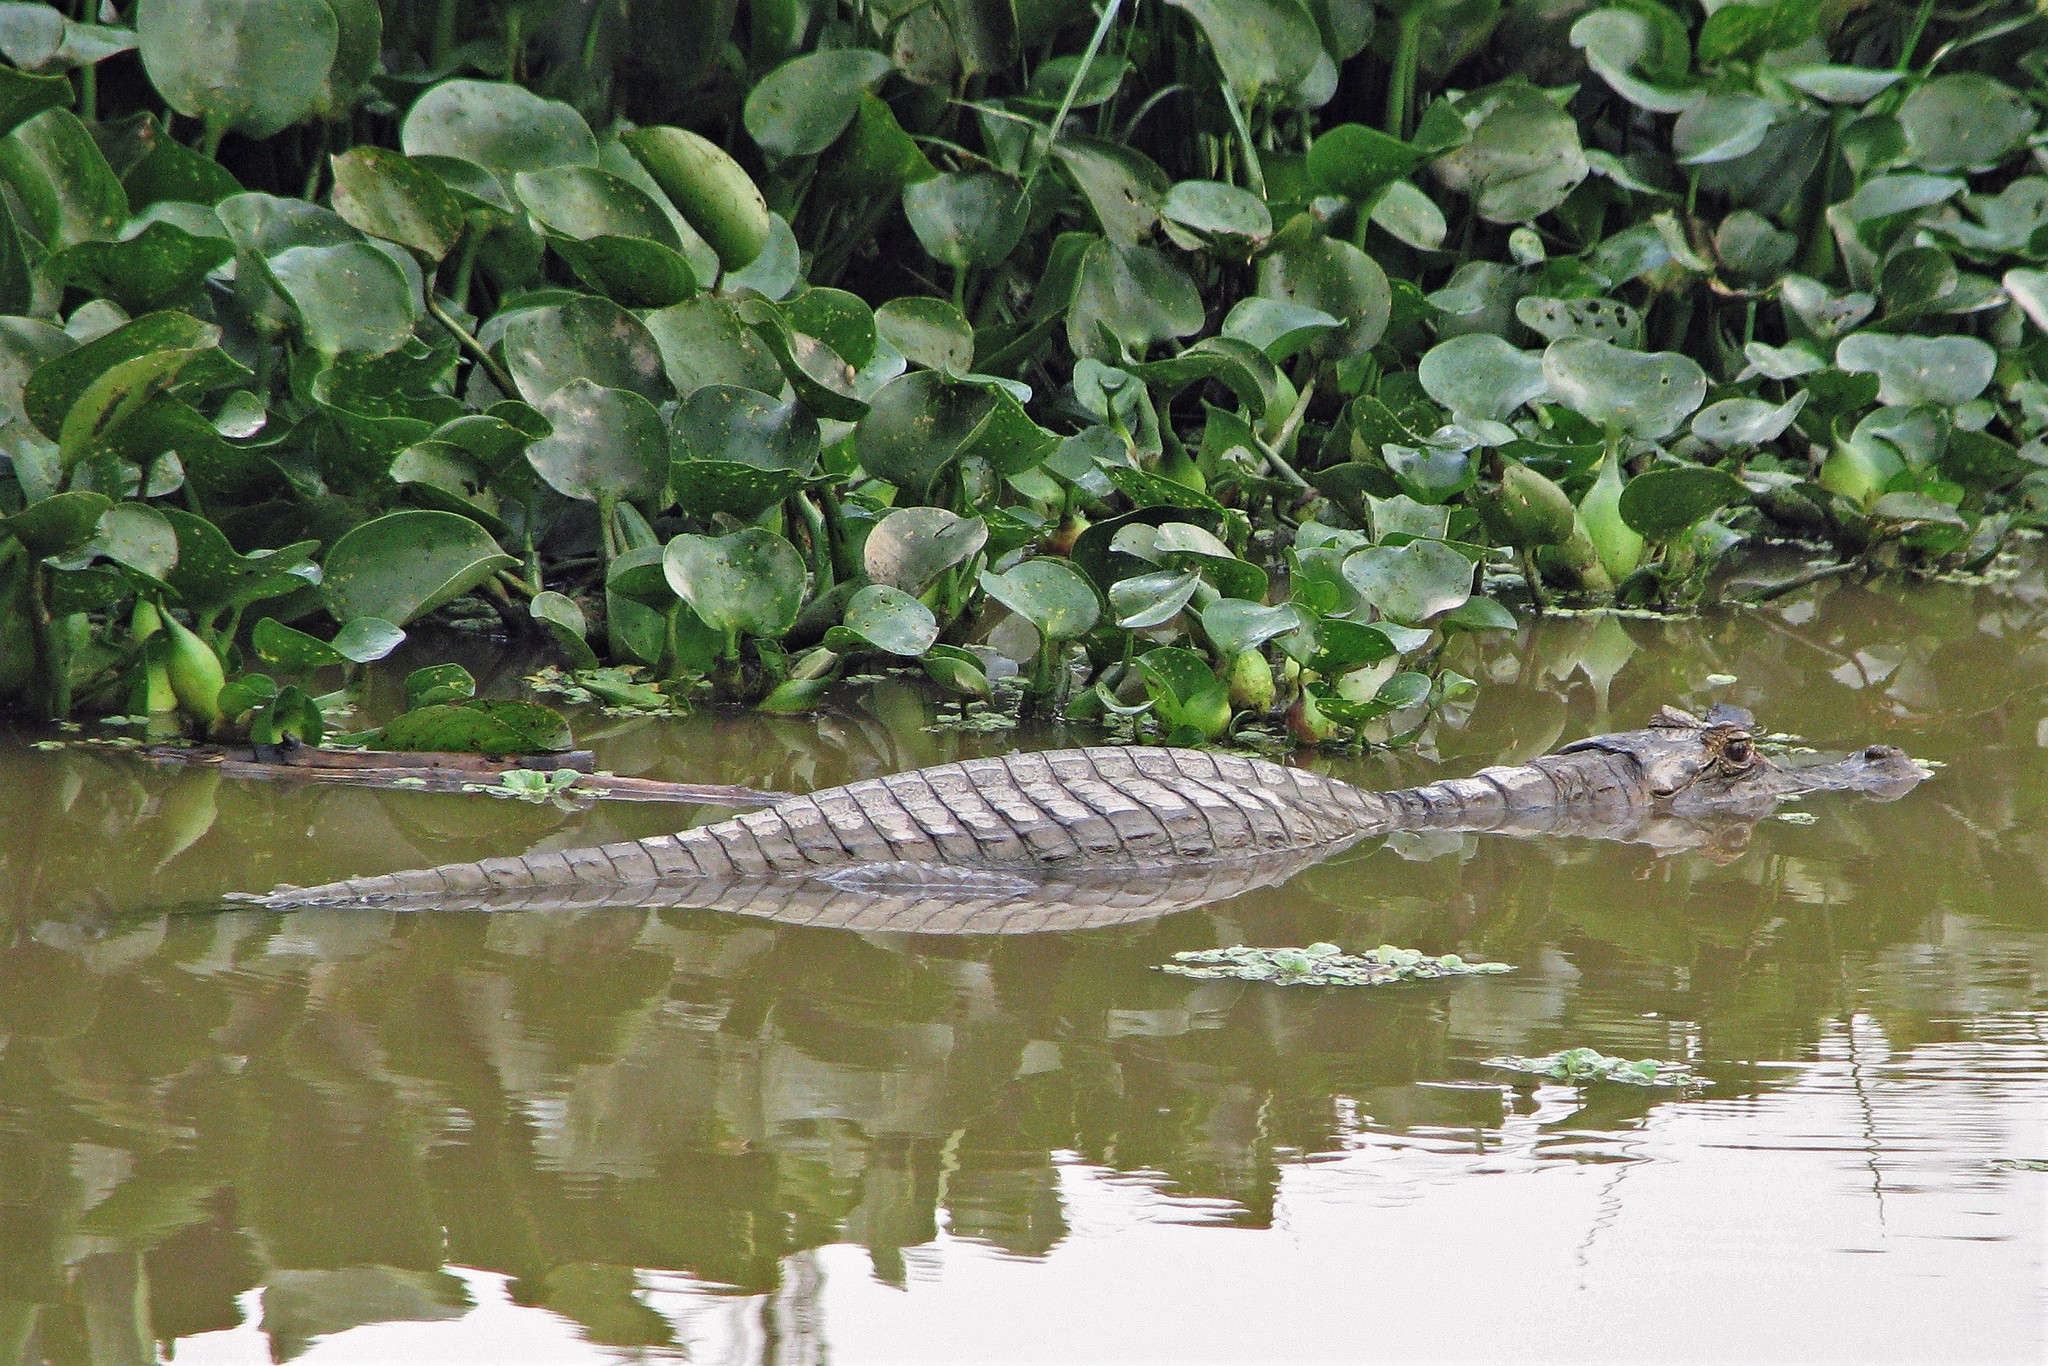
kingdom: Animalia
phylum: Chordata
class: Crocodylia
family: Alligatoridae
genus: Caiman
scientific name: Caiman yacare
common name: Yacare caiman
